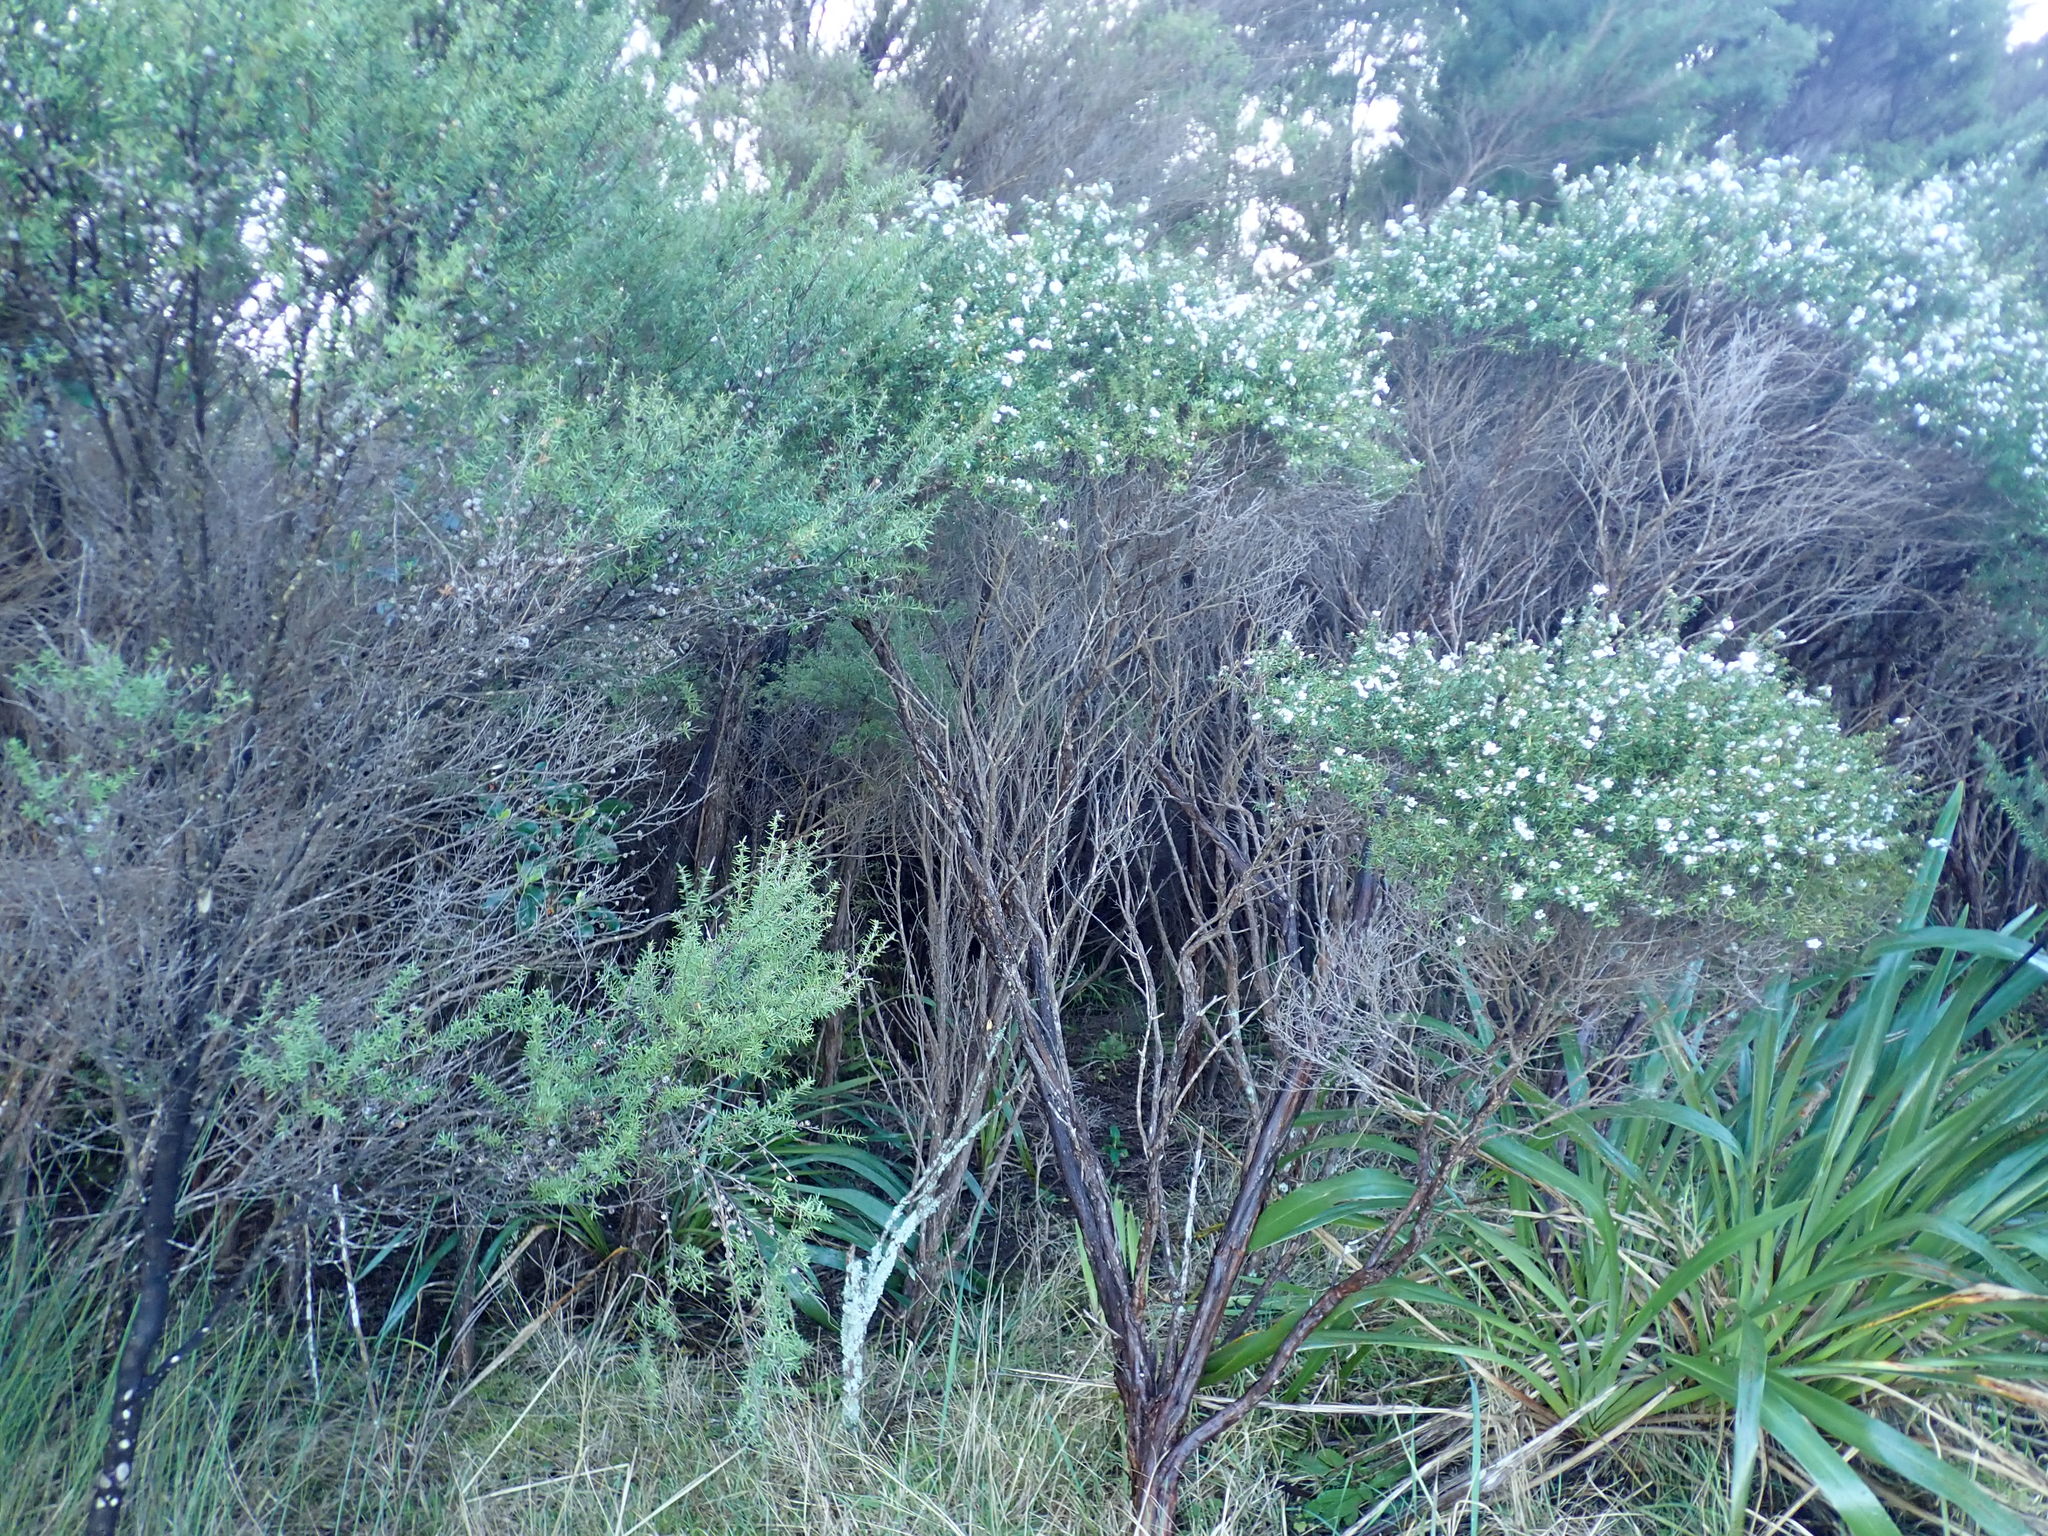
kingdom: Plantae
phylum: Tracheophyta
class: Magnoliopsida
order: Myrtales
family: Myrtaceae
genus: Leptospermum
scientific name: Leptospermum scoparium
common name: Broom tea-tree
